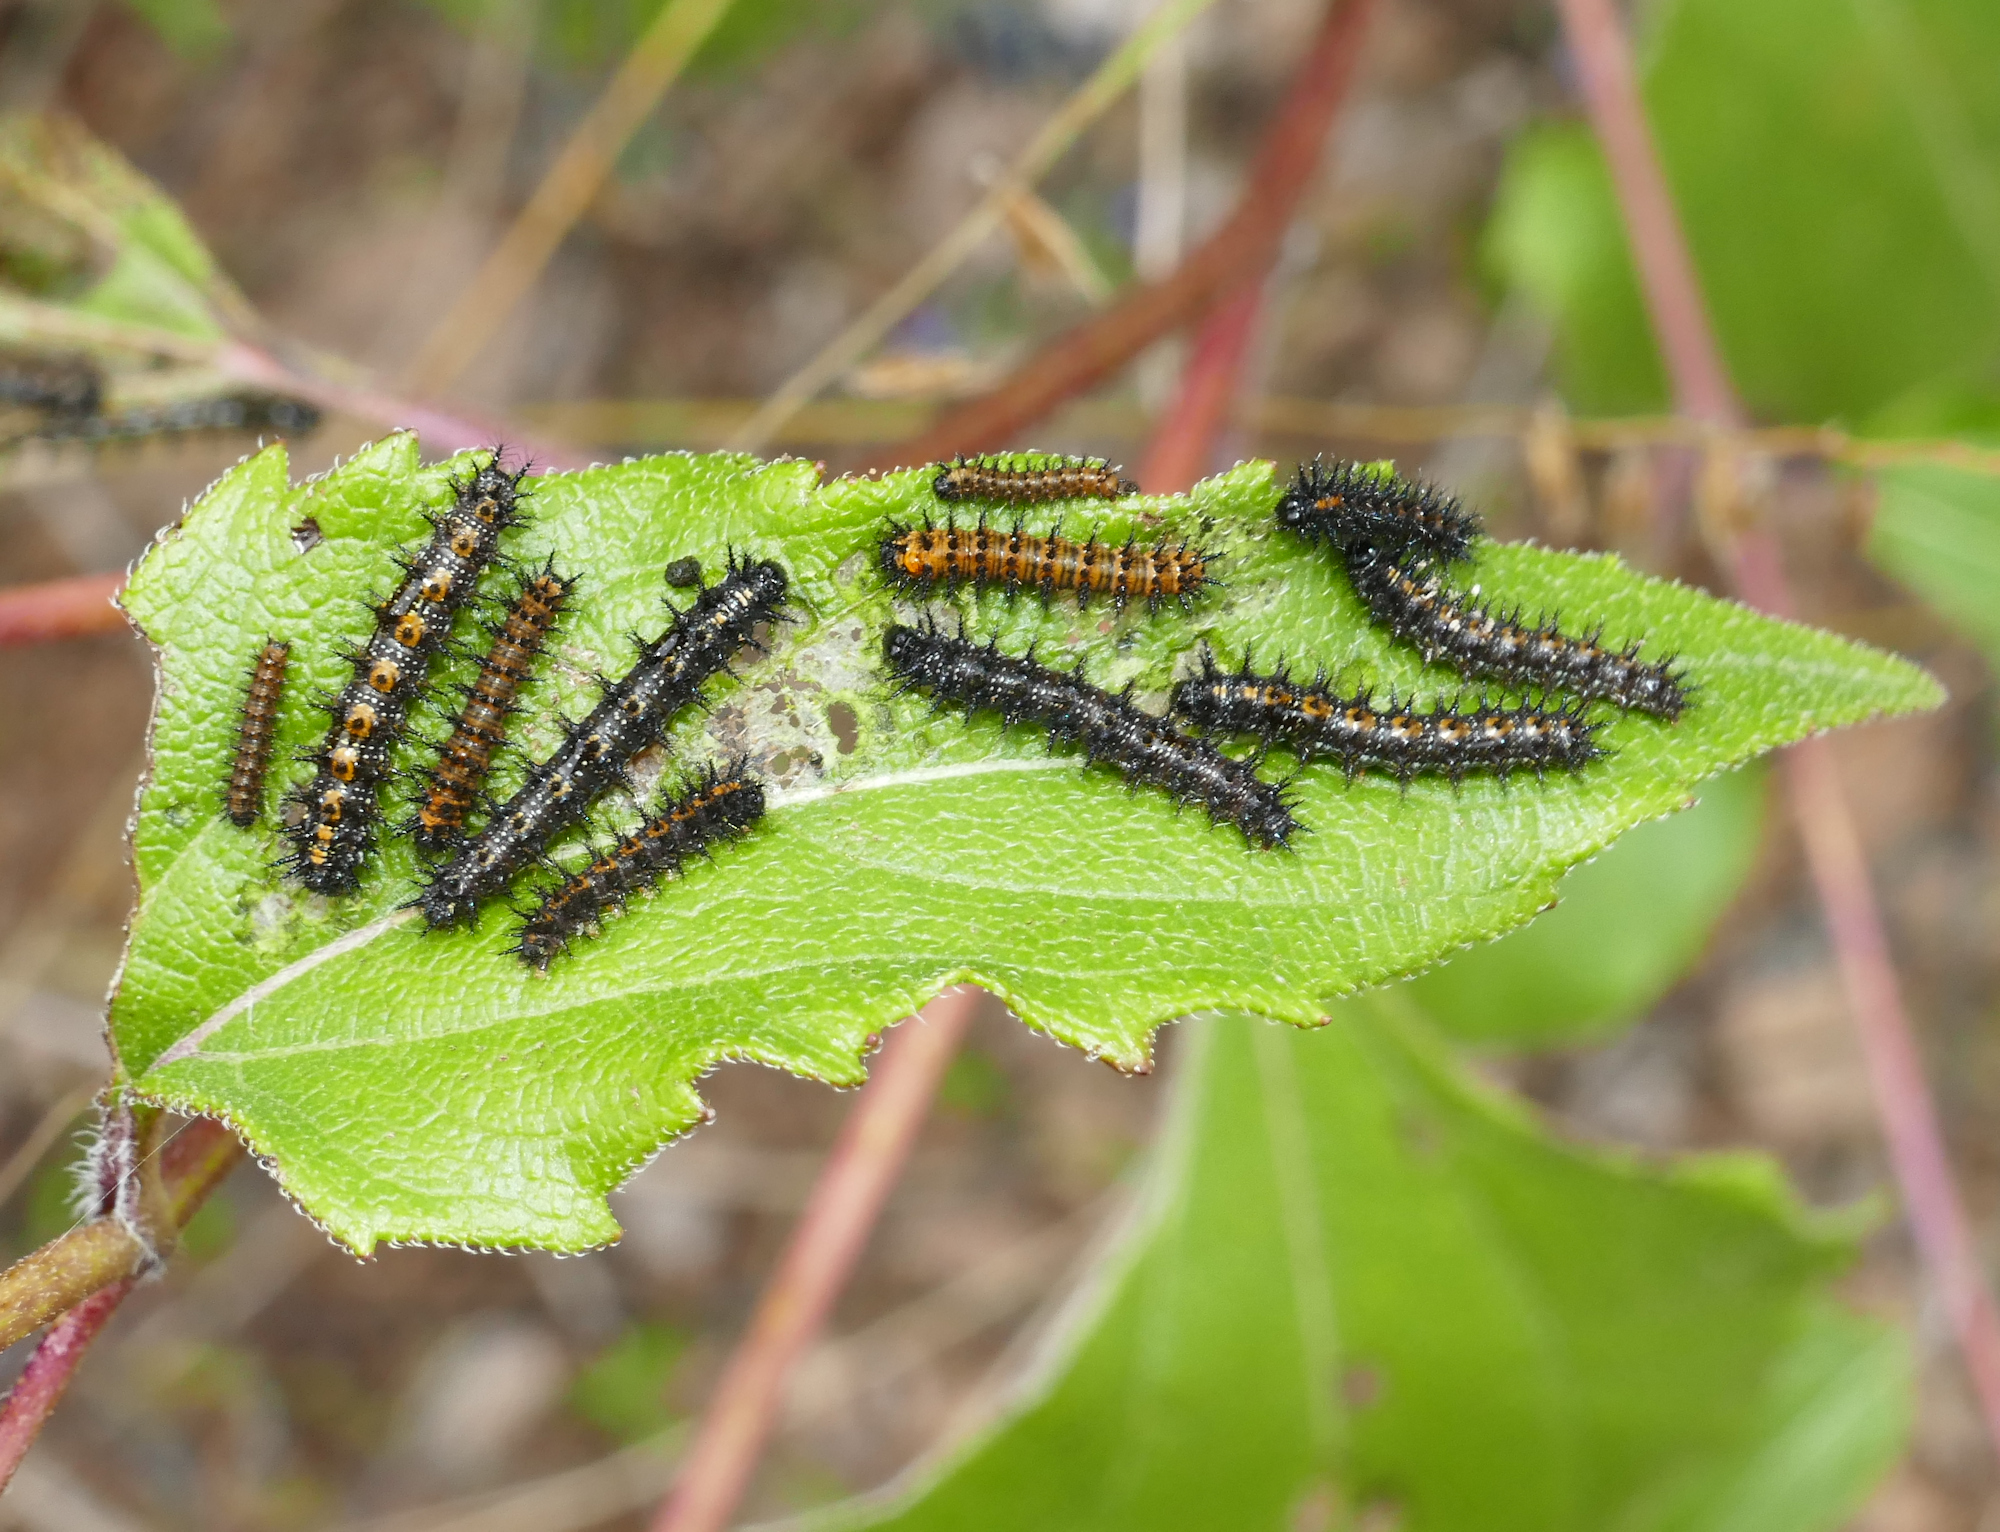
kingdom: Animalia
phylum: Arthropoda
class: Insecta
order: Lepidoptera
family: Nymphalidae
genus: Chlosyne
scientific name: Chlosyne lacinia
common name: Bordered patch
